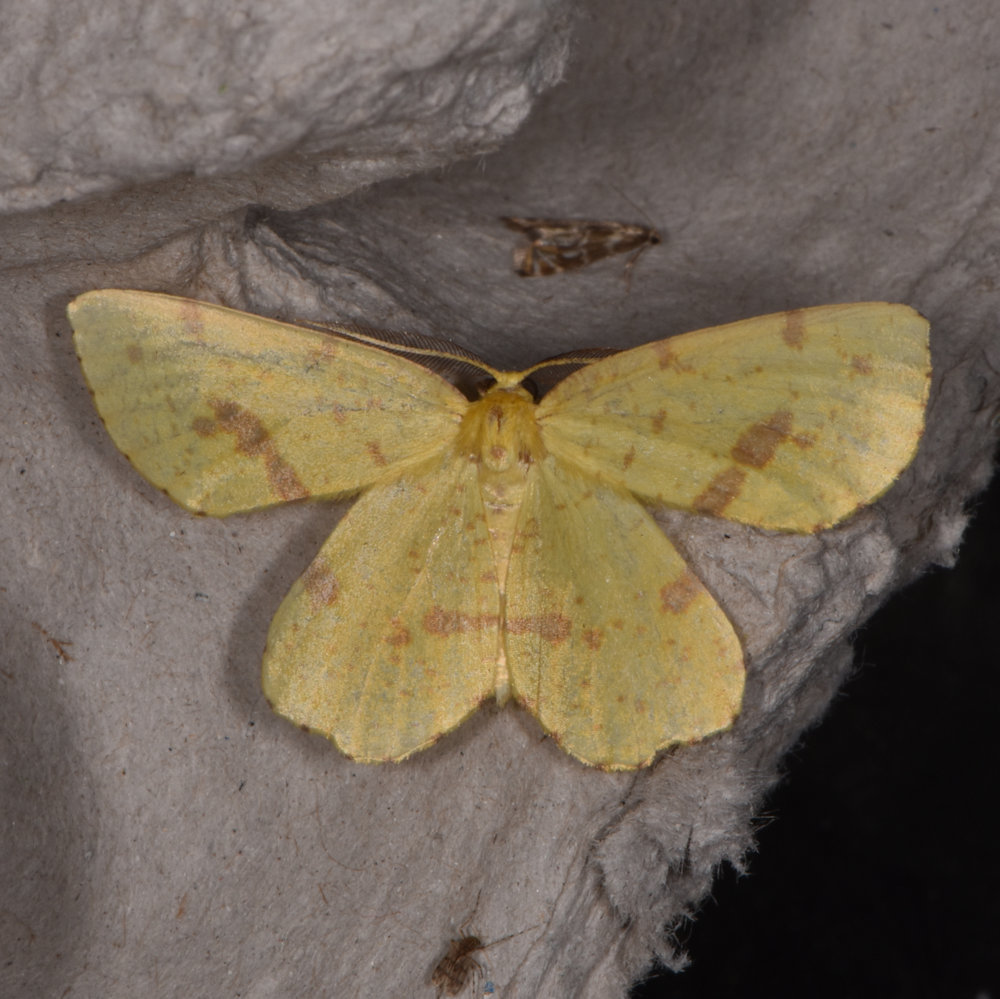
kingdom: Animalia
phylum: Arthropoda
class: Insecta
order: Lepidoptera
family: Geometridae
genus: Xanthotype
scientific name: Xanthotype
